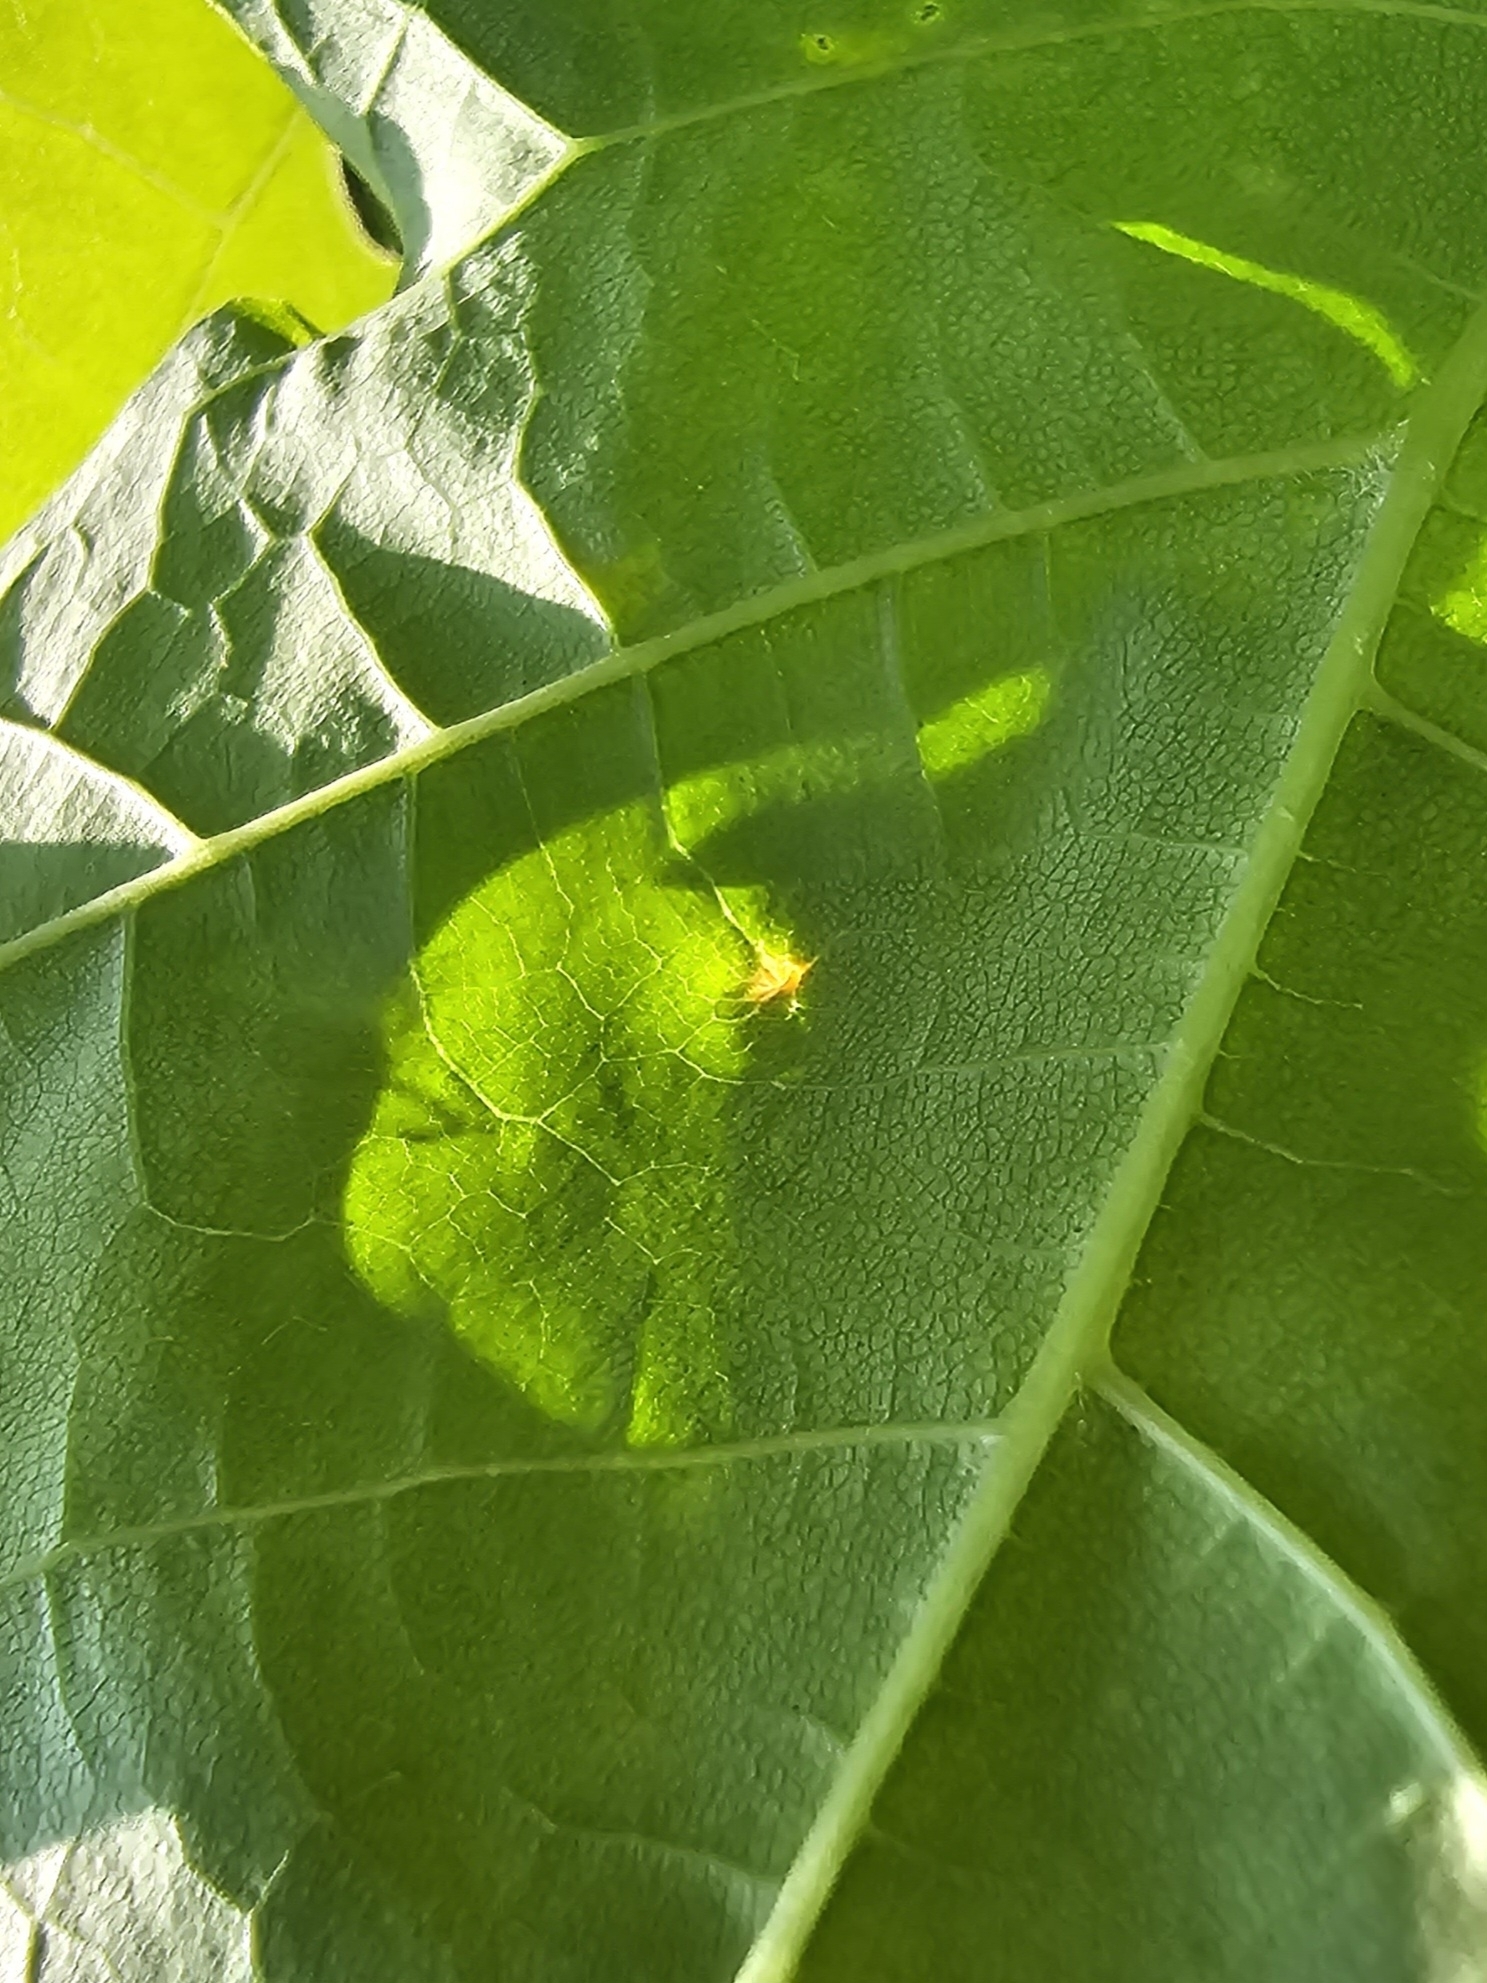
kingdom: Animalia
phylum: Arthropoda
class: Arachnida
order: Trombidiformes
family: Eriophyidae
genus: Vasates
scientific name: Vasates aceriscrumena
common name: Maple spindle gall mite
